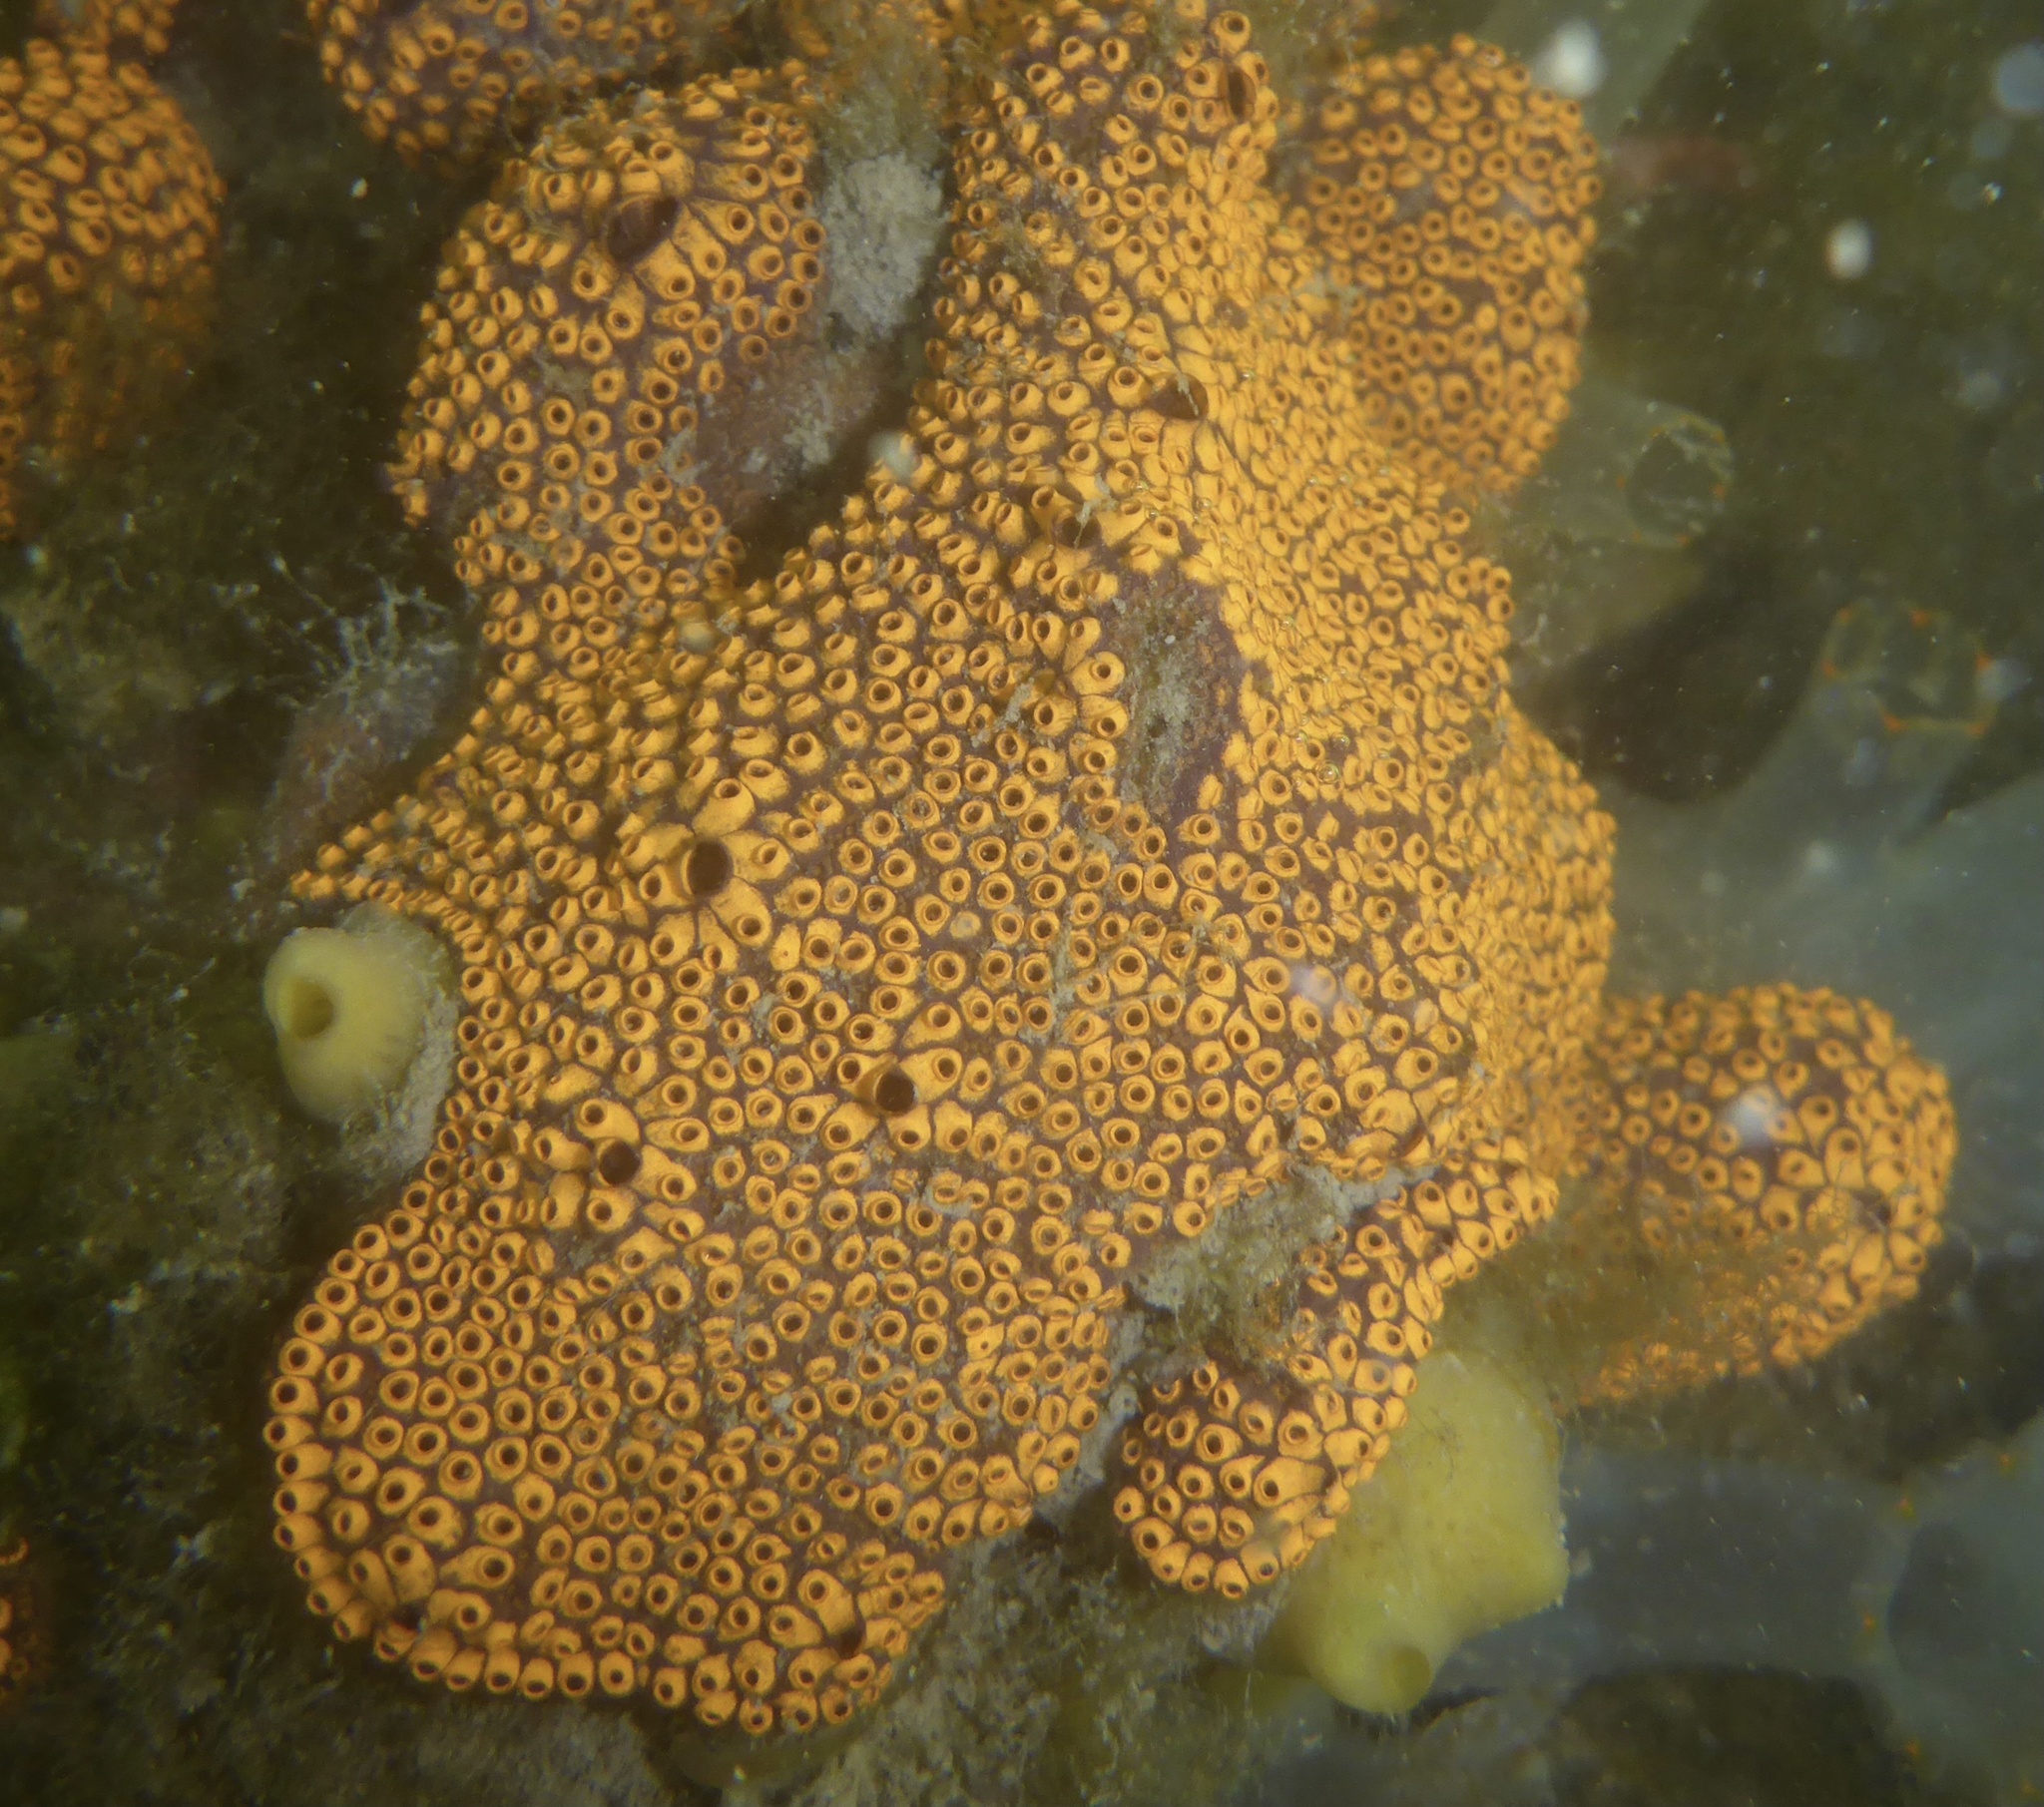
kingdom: Animalia
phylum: Chordata
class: Ascidiacea
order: Stolidobranchia
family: Styelidae
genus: Botrylloides
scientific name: Botrylloides diegensis
